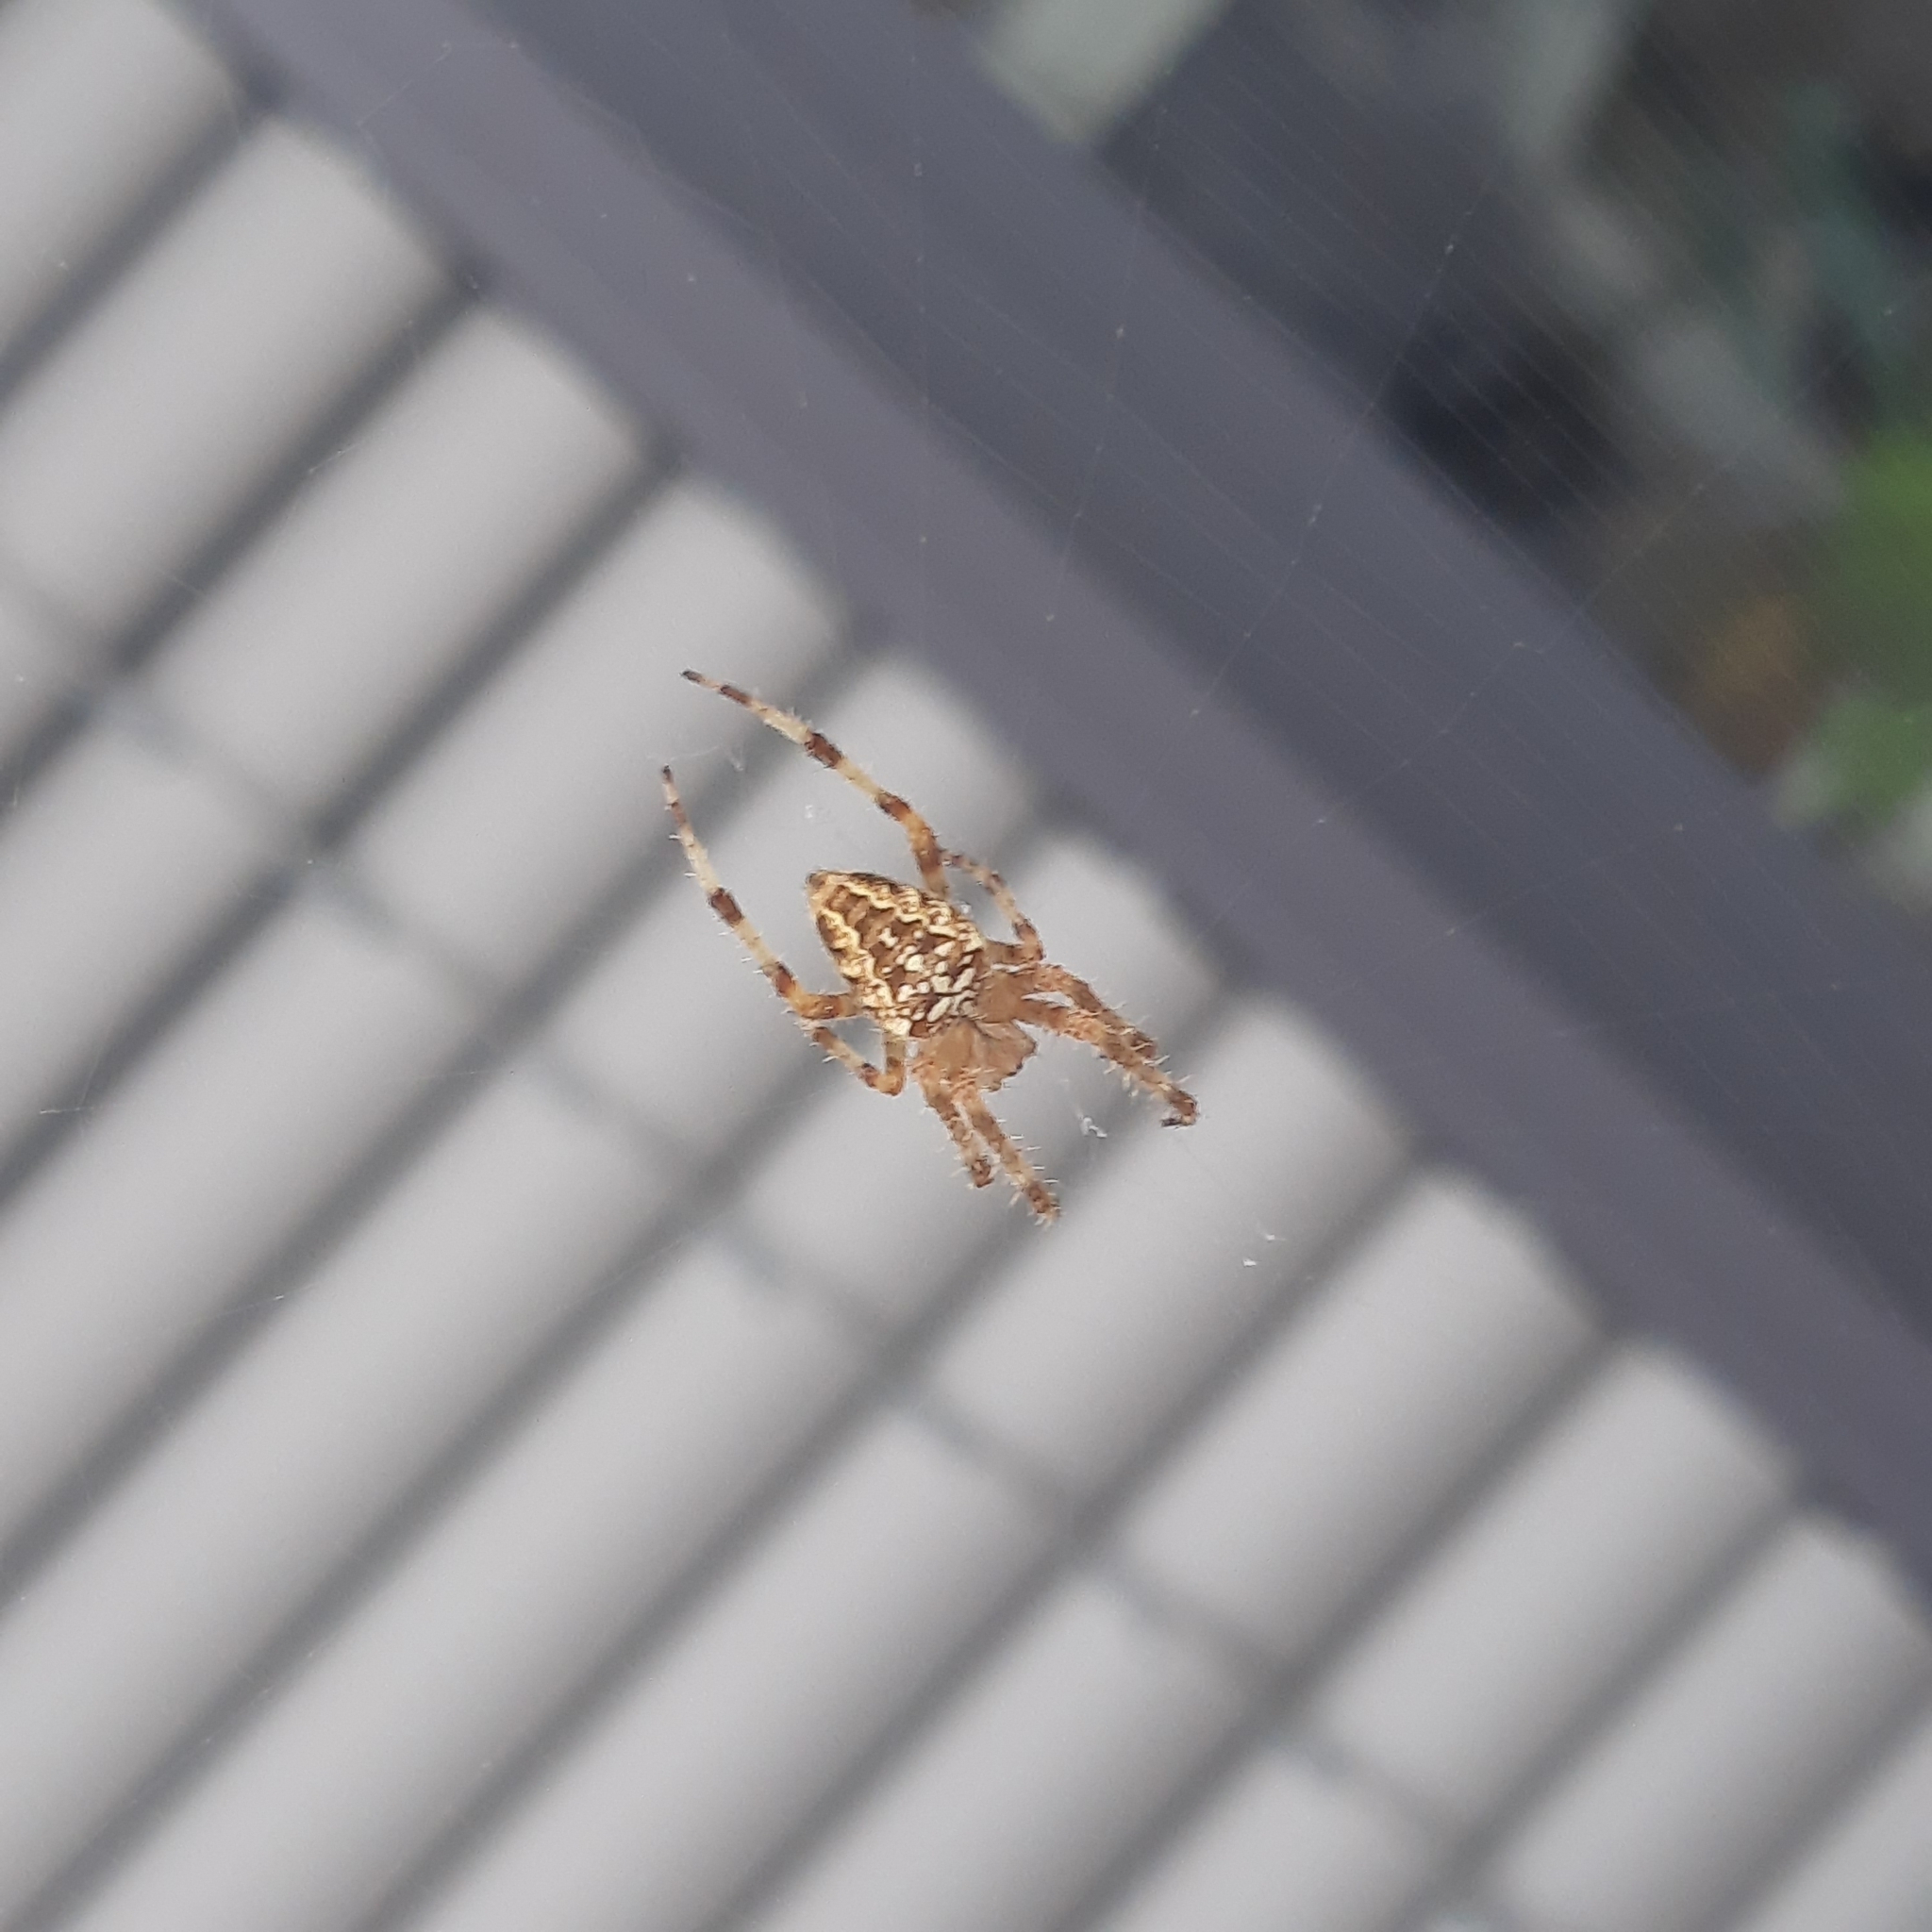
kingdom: Animalia
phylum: Arthropoda
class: Arachnida
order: Araneae
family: Araneidae
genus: Araneus
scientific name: Araneus diadematus
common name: Cross orbweaver
